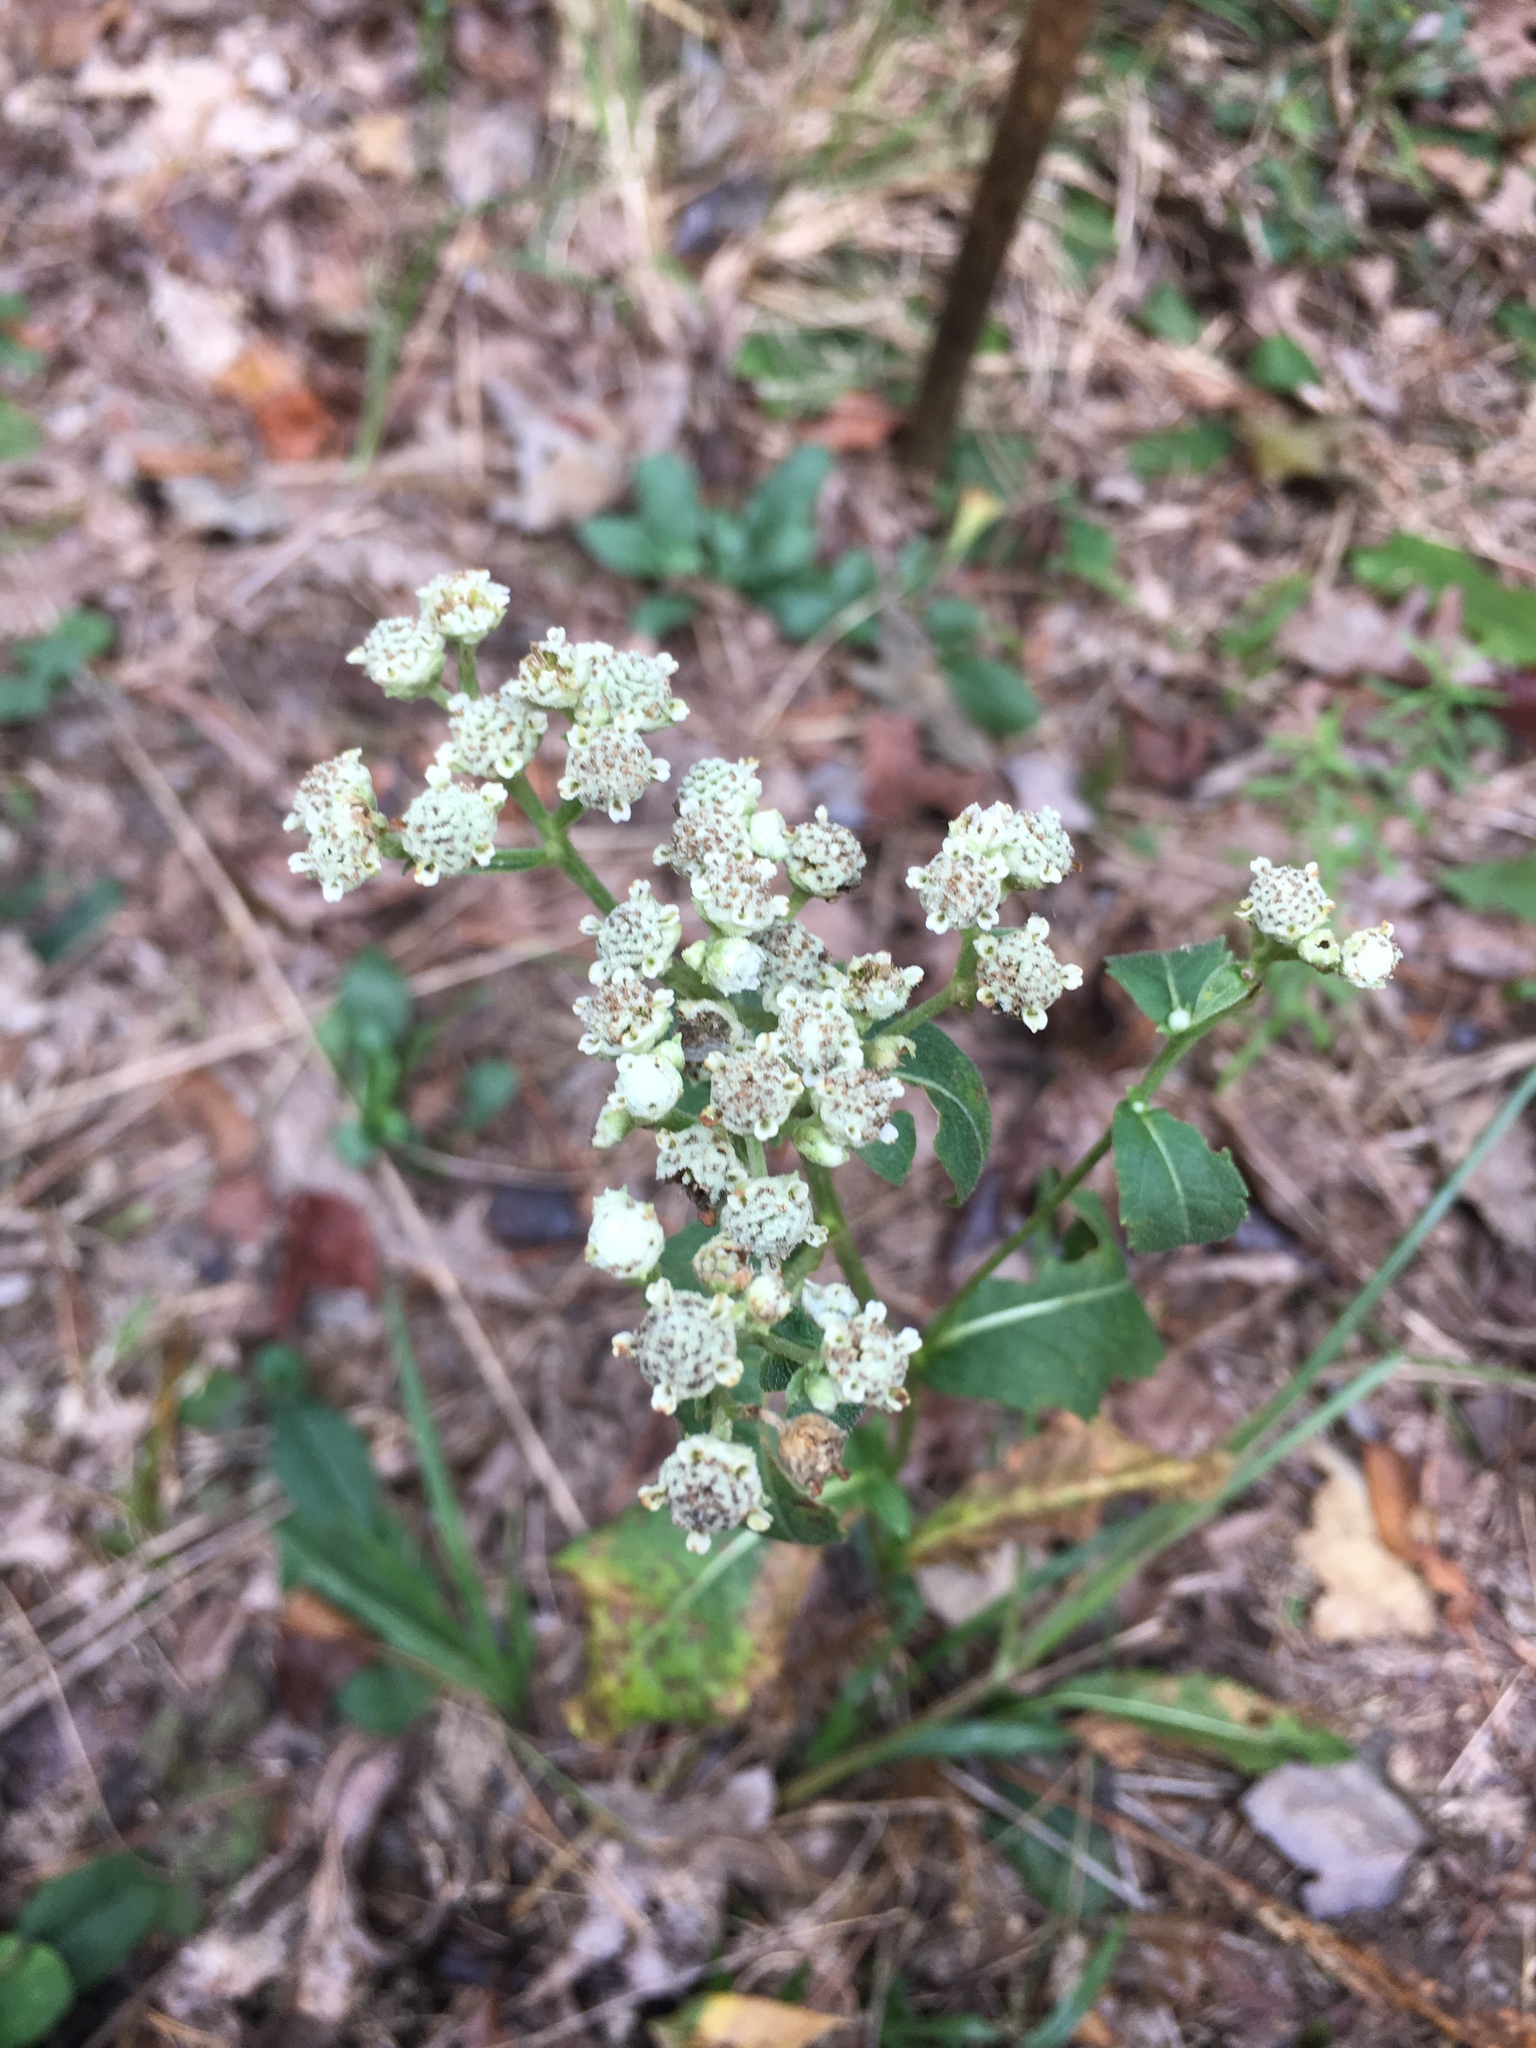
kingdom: Plantae
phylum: Tracheophyta
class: Magnoliopsida
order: Asterales
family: Asteraceae
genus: Parthenium
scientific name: Parthenium integrifolium
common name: American feverfew
